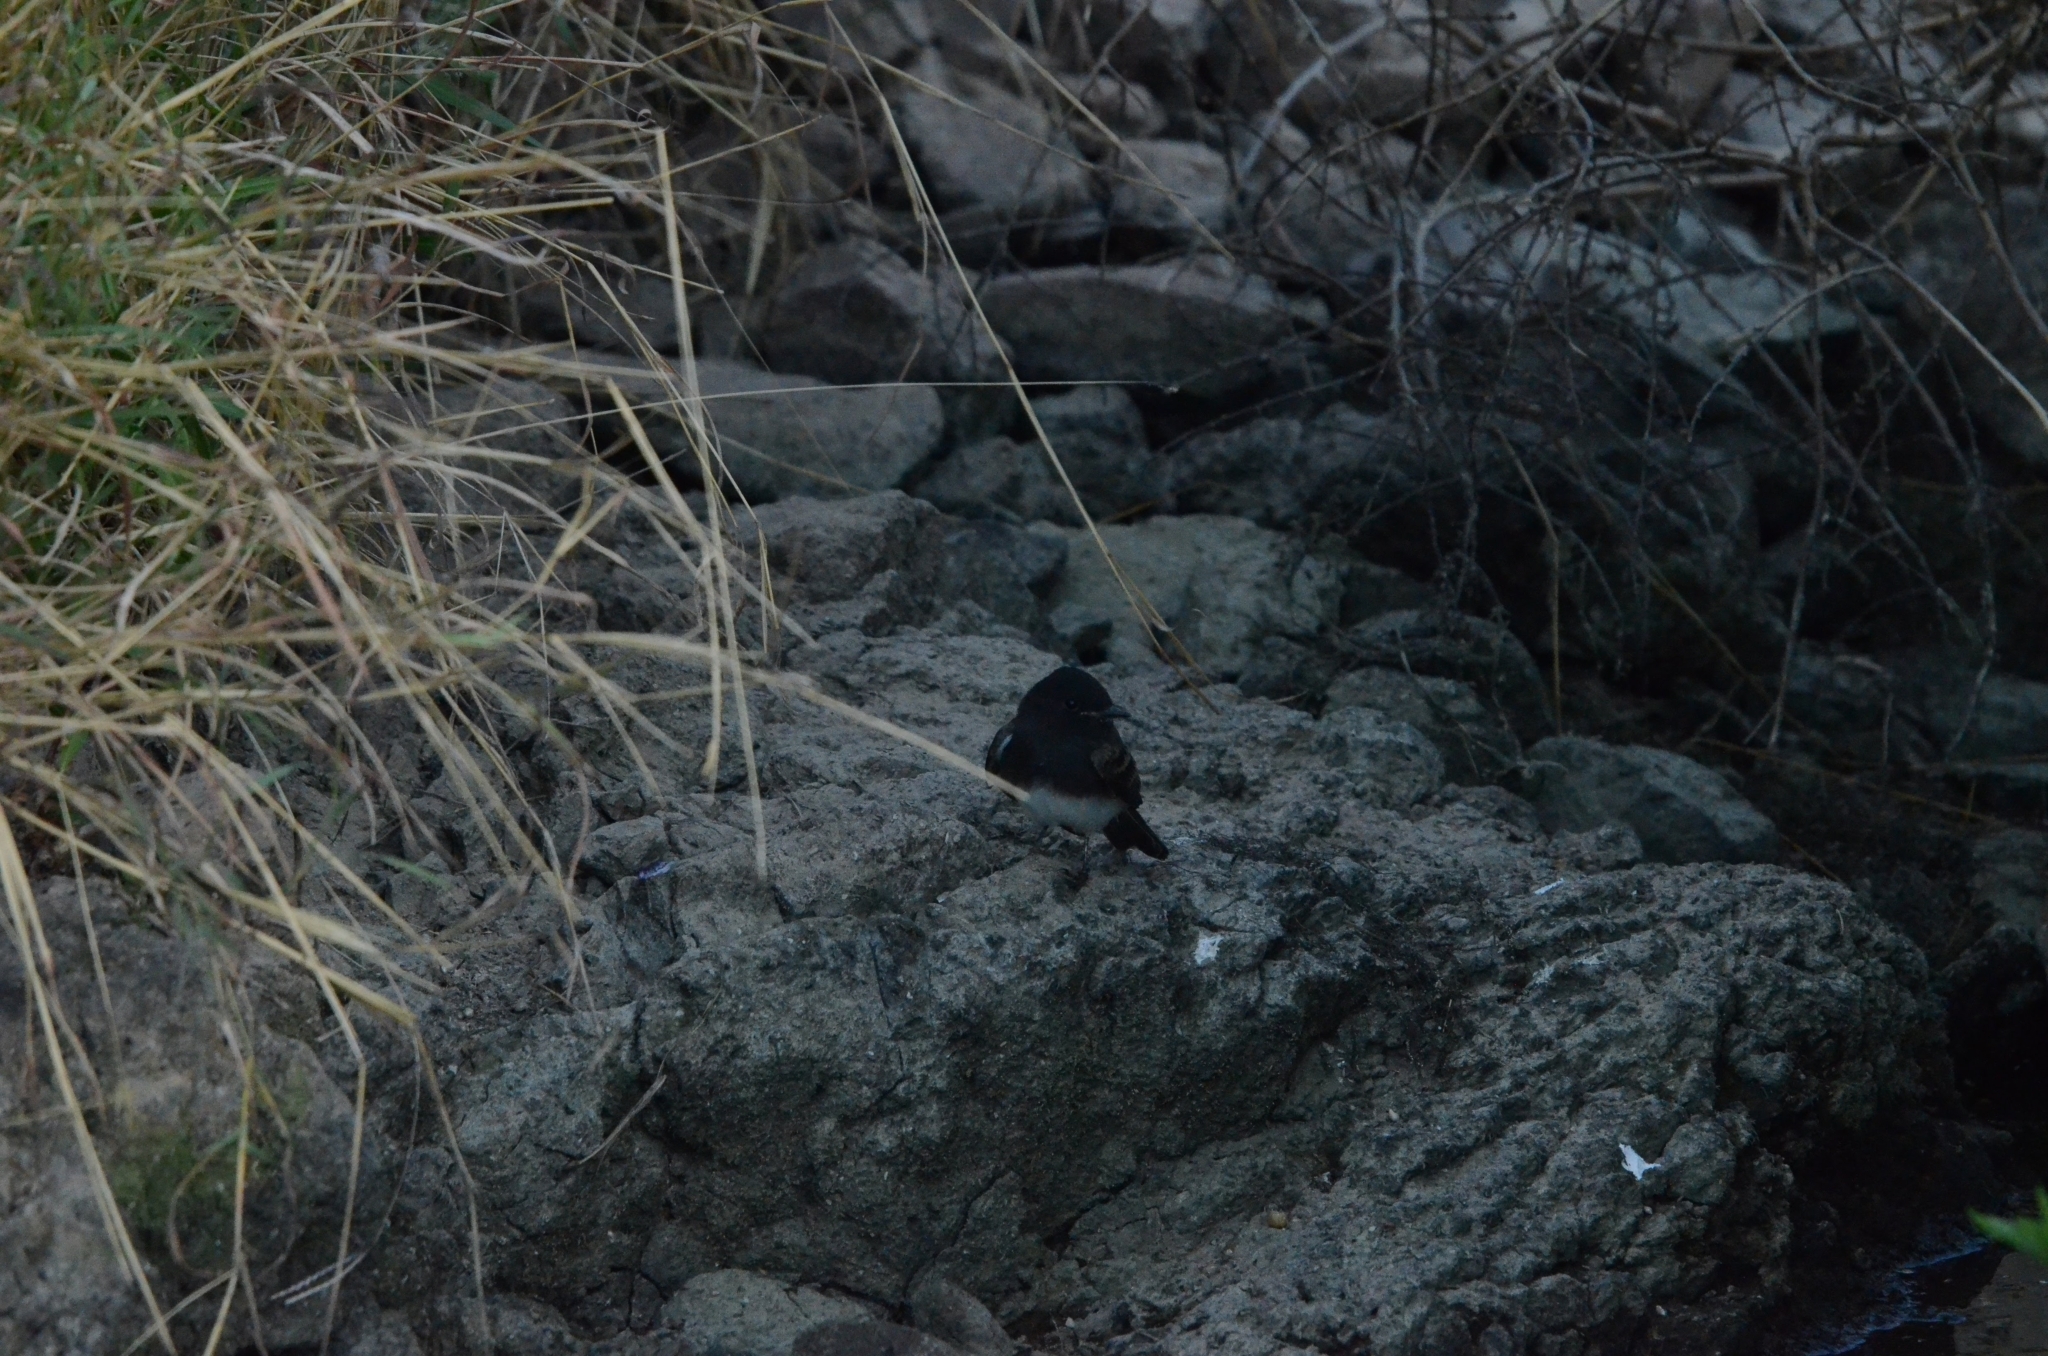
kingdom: Animalia
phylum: Chordata
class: Aves
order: Passeriformes
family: Tyrannidae
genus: Sayornis
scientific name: Sayornis nigricans
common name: Black phoebe
